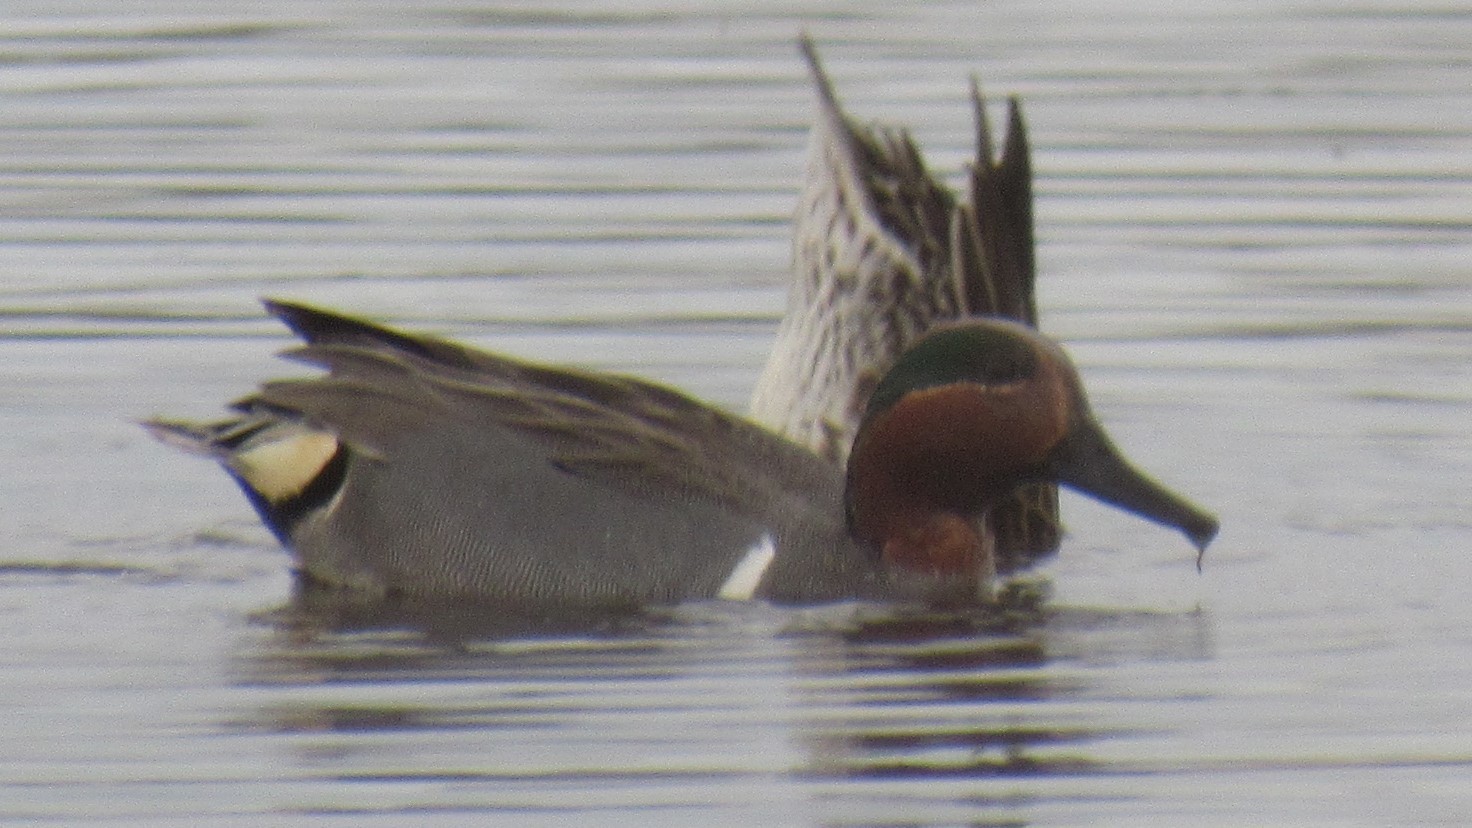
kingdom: Animalia
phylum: Chordata
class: Aves
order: Anseriformes
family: Anatidae
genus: Anas
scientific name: Anas crecca
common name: Eurasian teal
